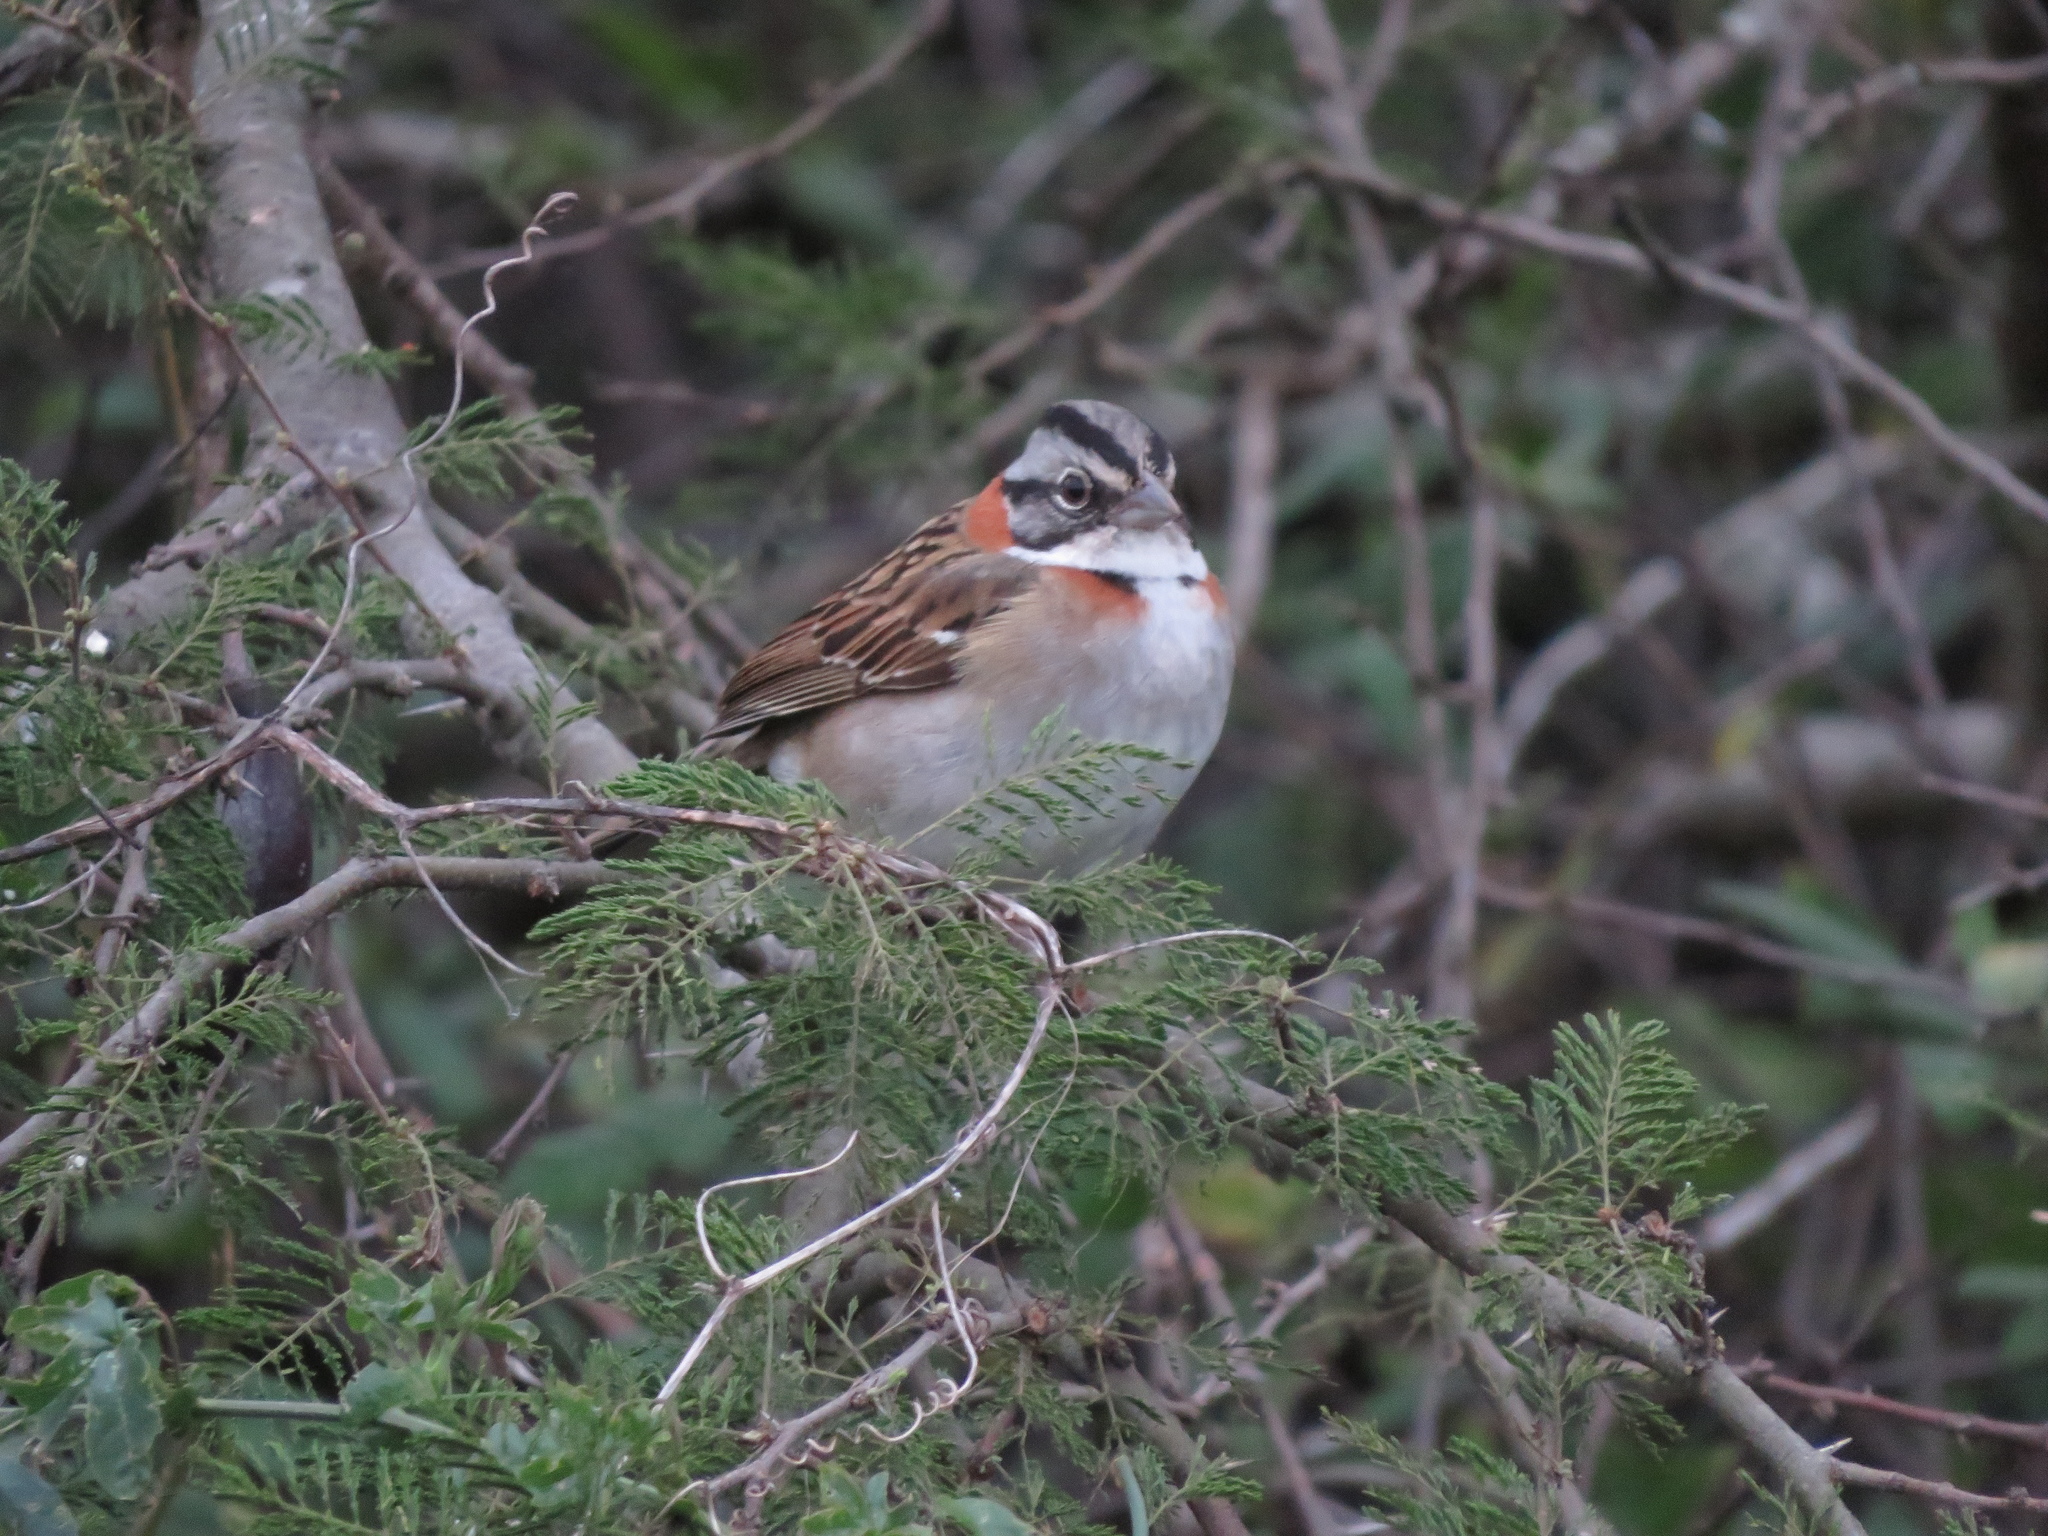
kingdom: Animalia
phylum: Chordata
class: Aves
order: Passeriformes
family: Passerellidae
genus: Zonotrichia
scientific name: Zonotrichia capensis
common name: Rufous-collared sparrow
